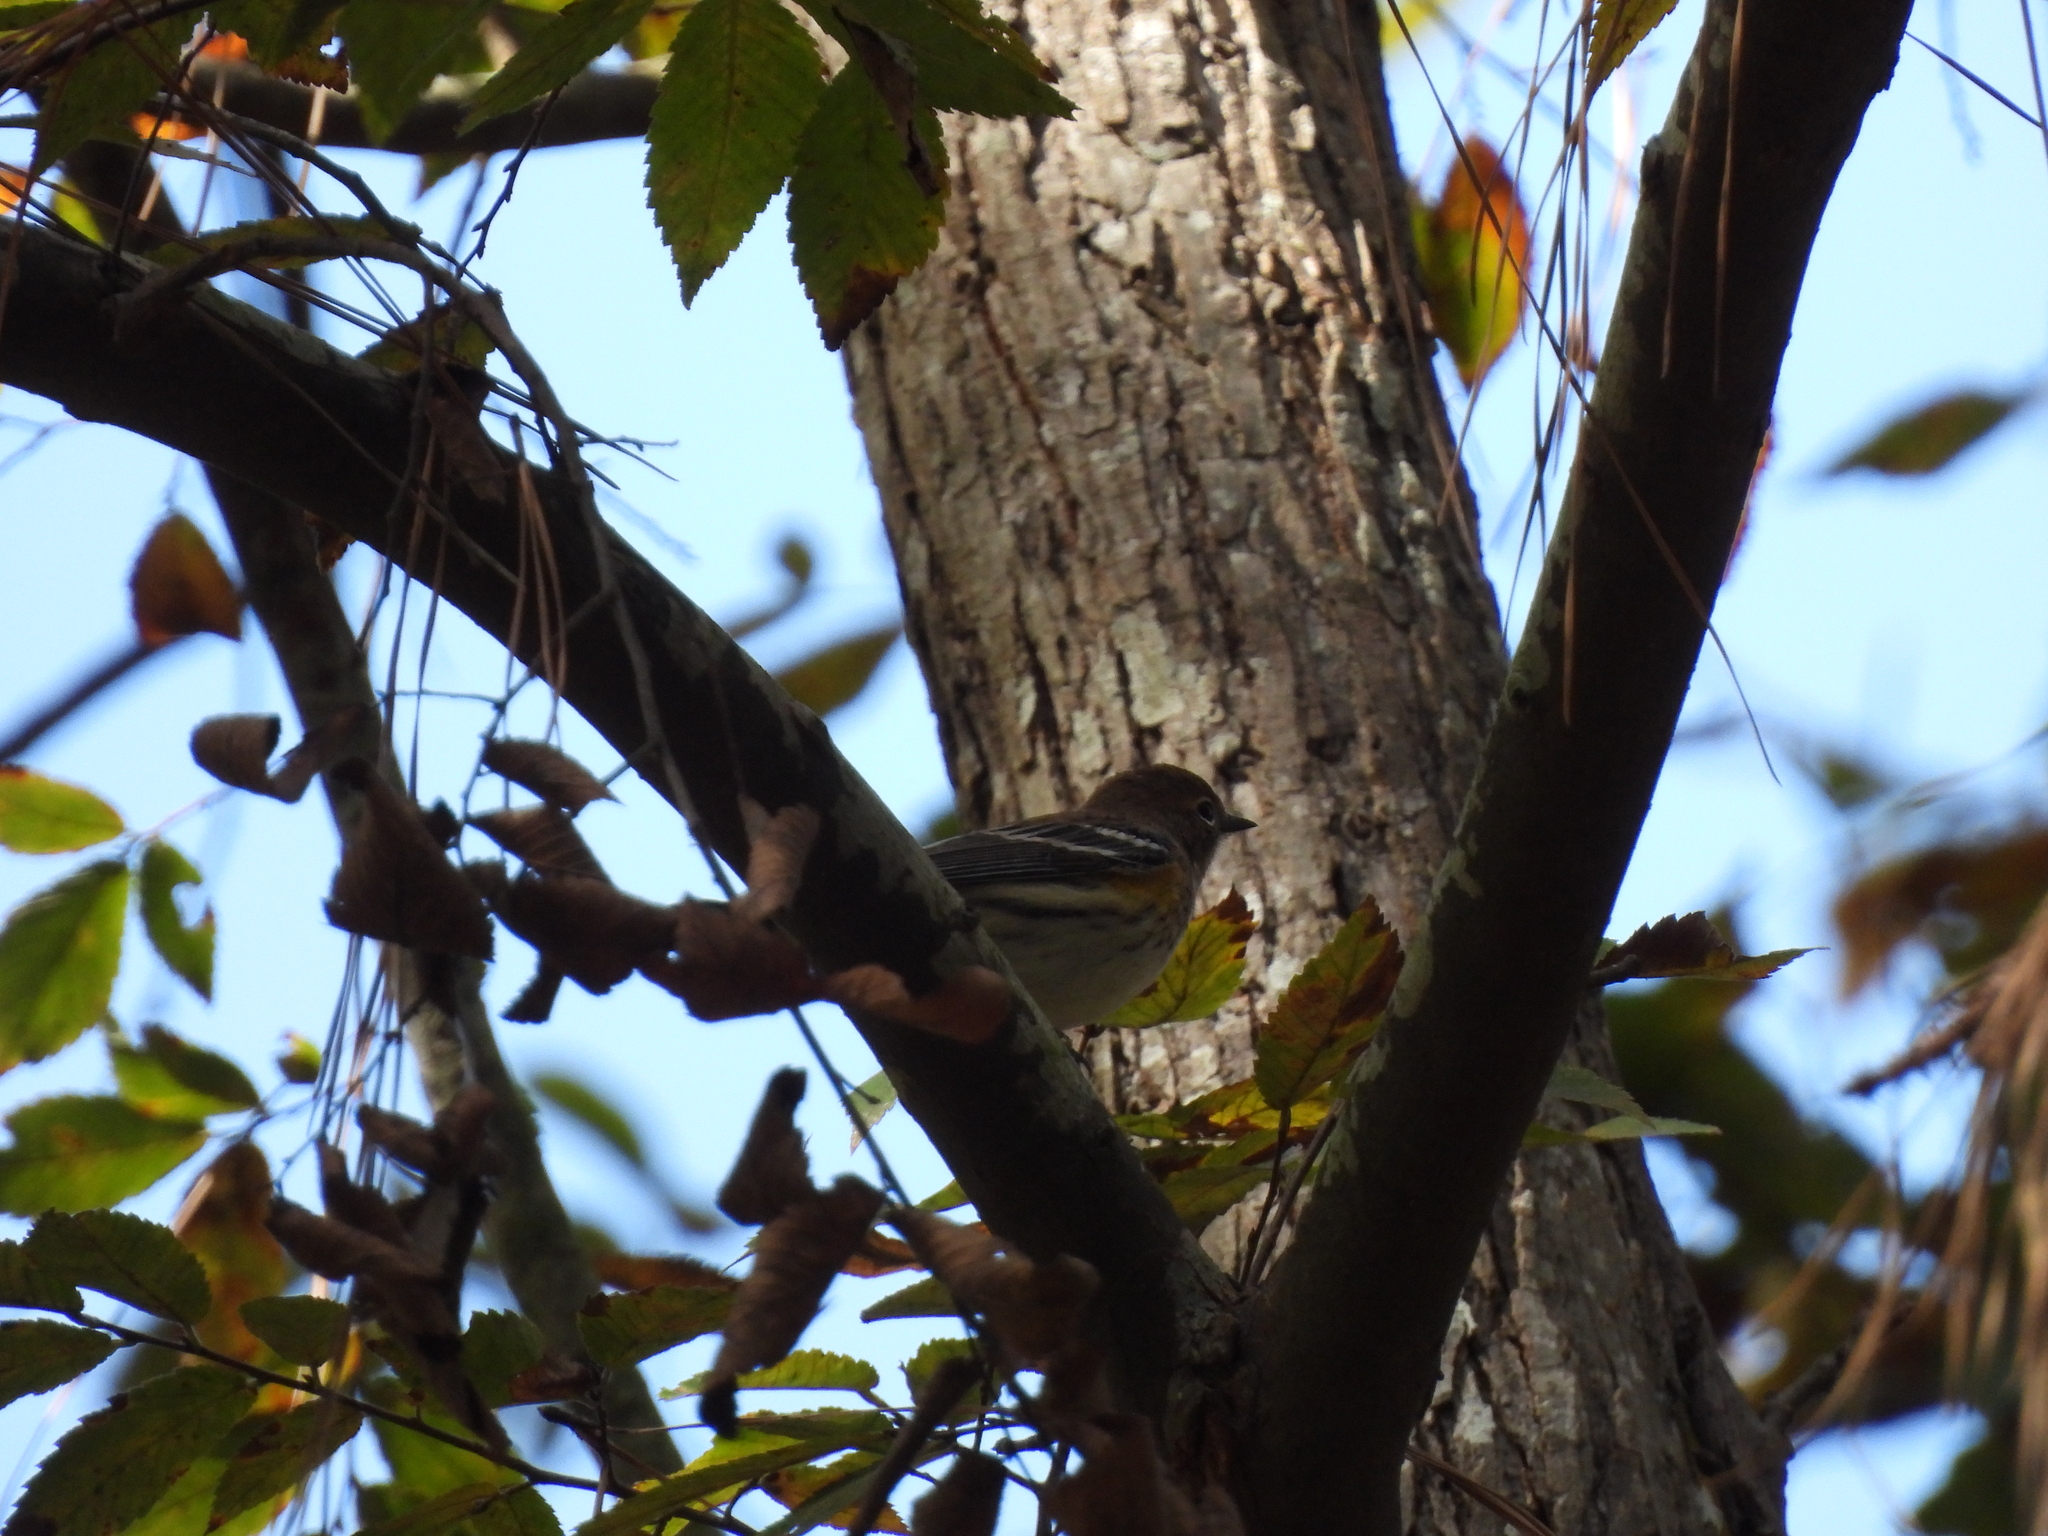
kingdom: Animalia
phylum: Chordata
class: Aves
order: Passeriformes
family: Parulidae
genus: Setophaga
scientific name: Setophaga coronata
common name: Myrtle warbler
